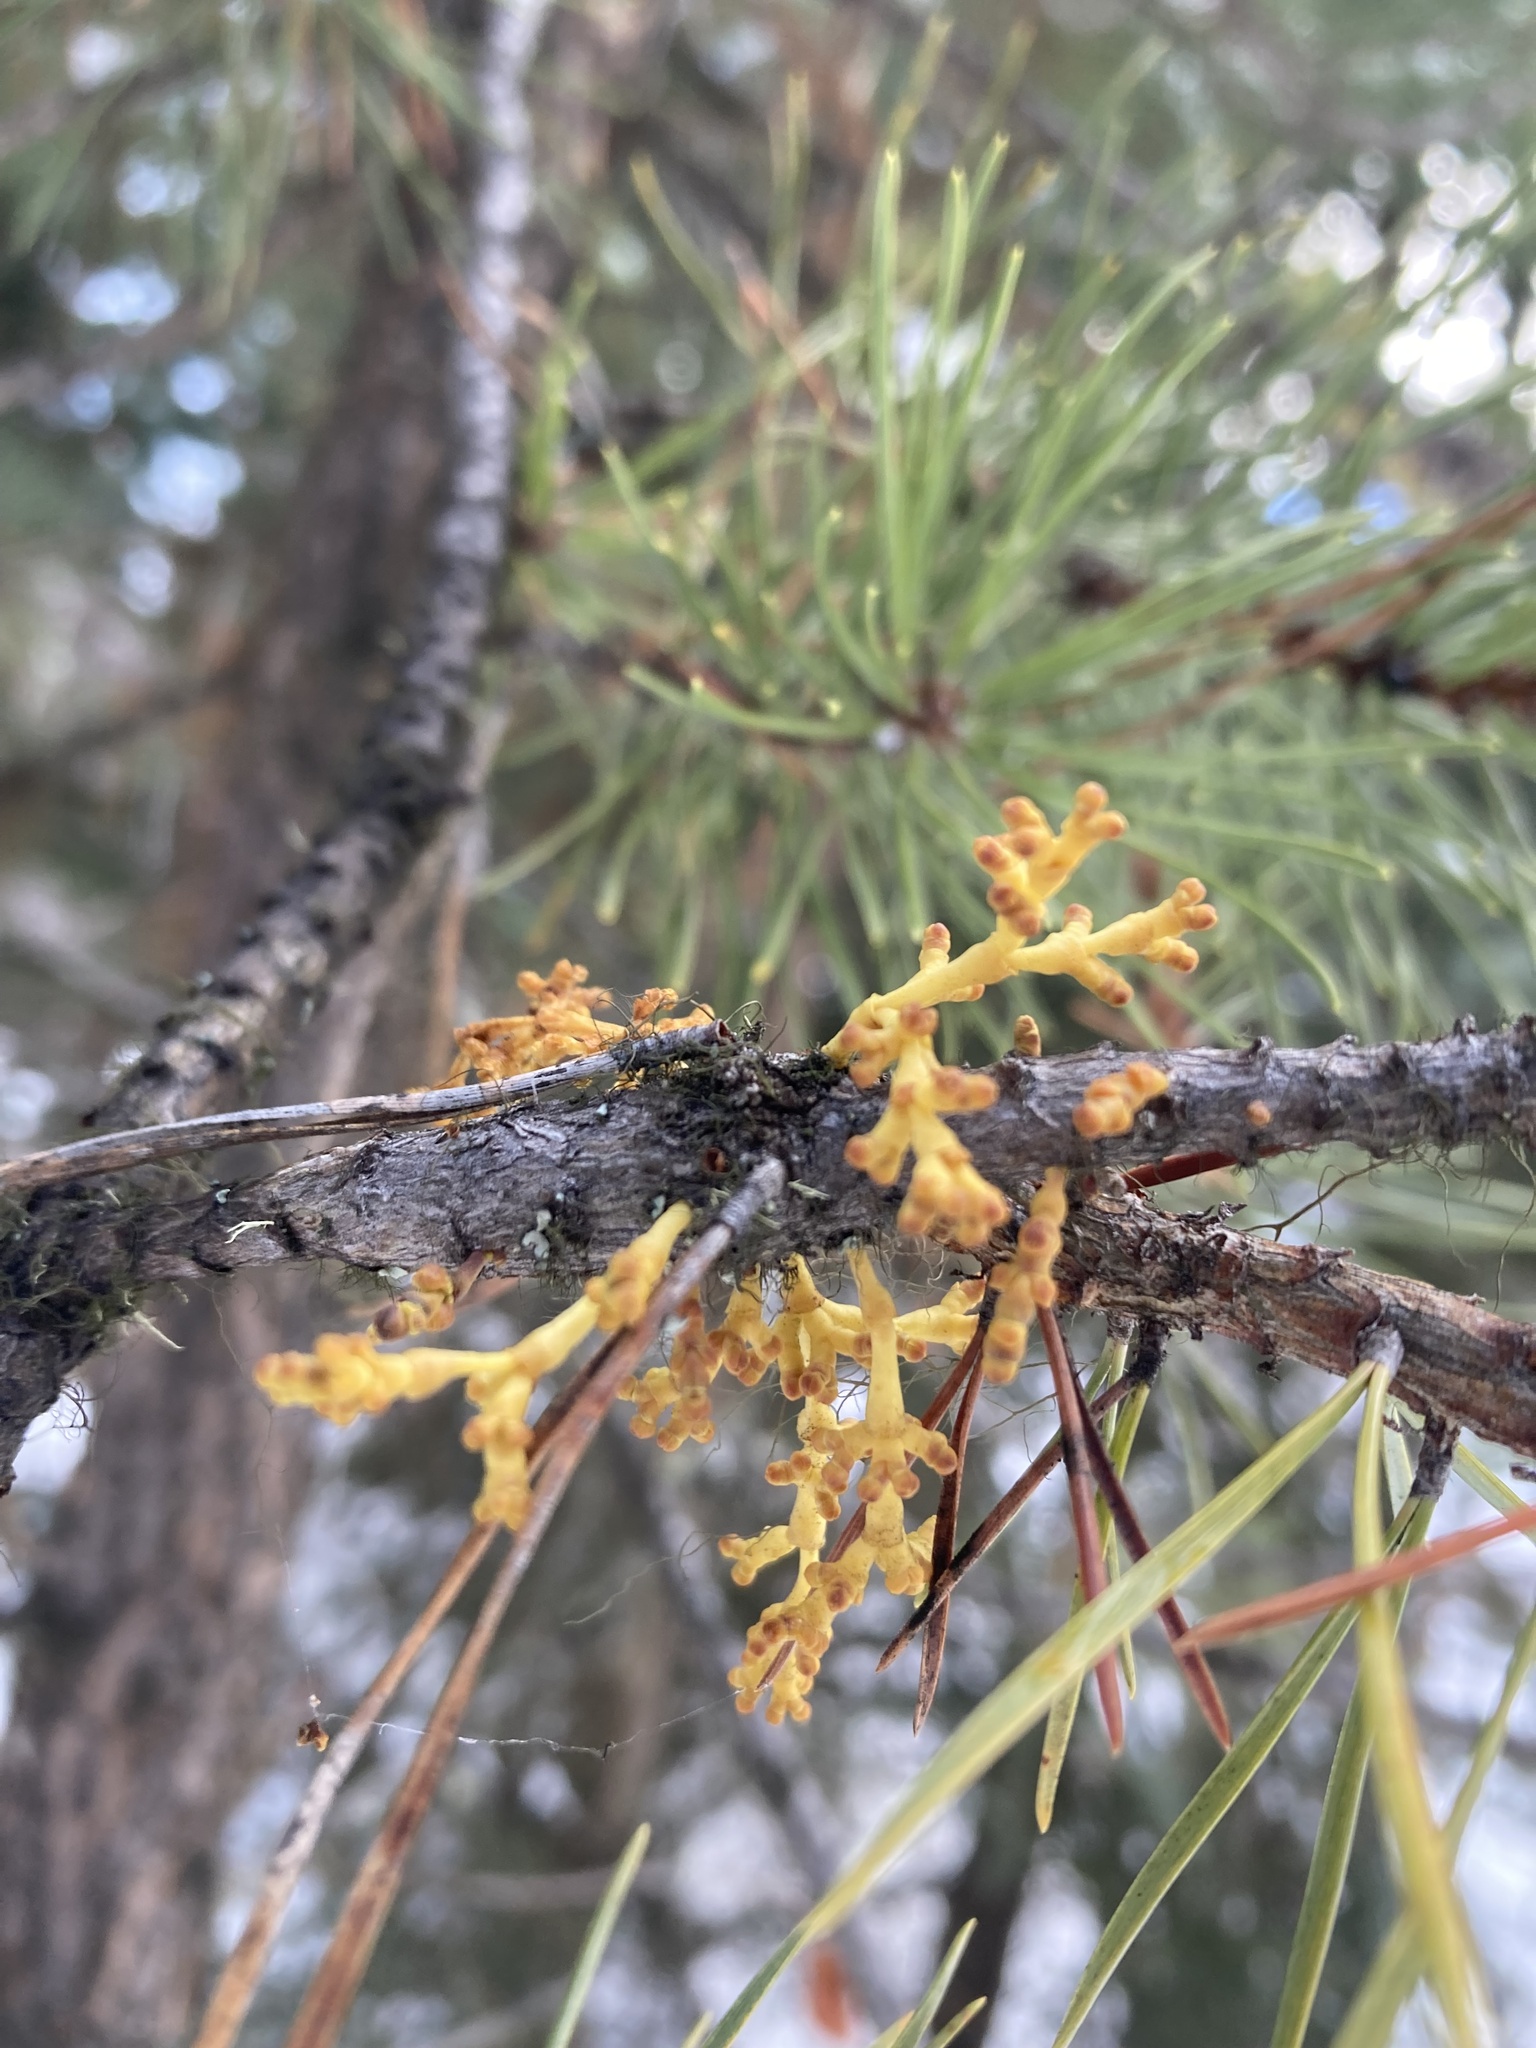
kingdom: Plantae
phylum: Tracheophyta
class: Magnoliopsida
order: Santalales
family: Viscaceae
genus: Arceuthobium
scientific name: Arceuthobium americanum
